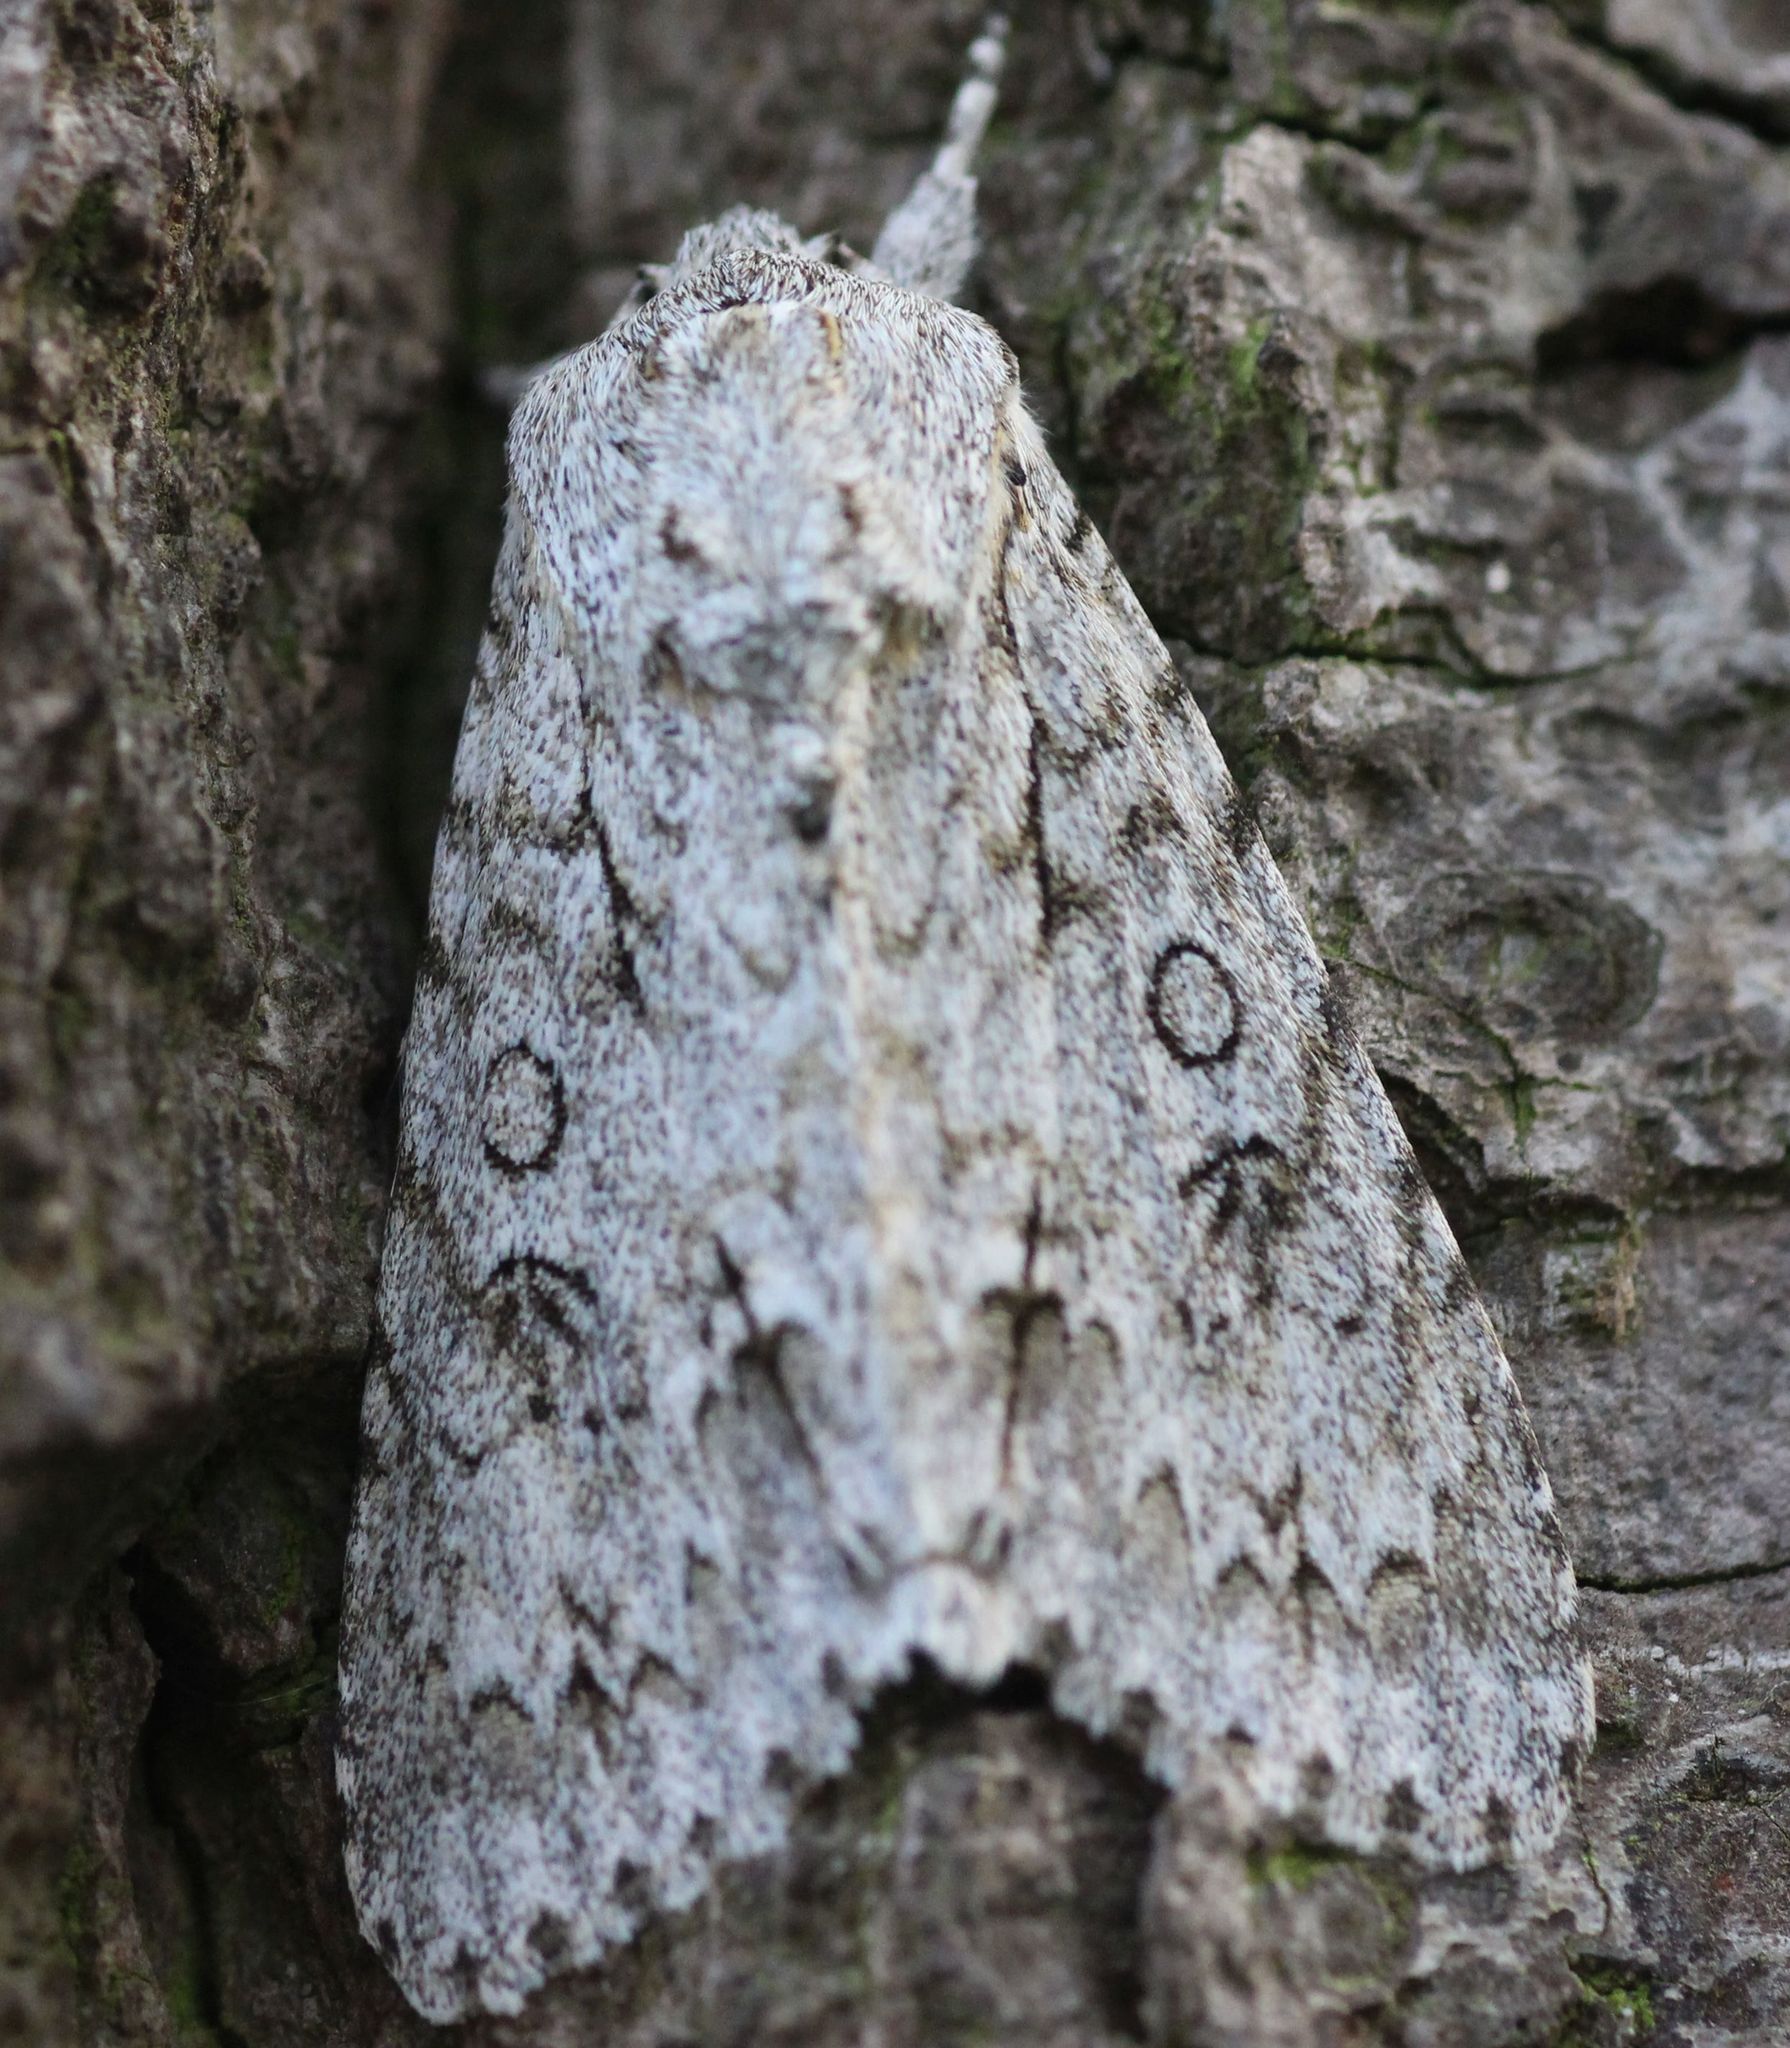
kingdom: Animalia
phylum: Arthropoda
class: Insecta
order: Lepidoptera
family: Noctuidae
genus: Acronicta
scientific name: Acronicta aceris
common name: Sycamore
